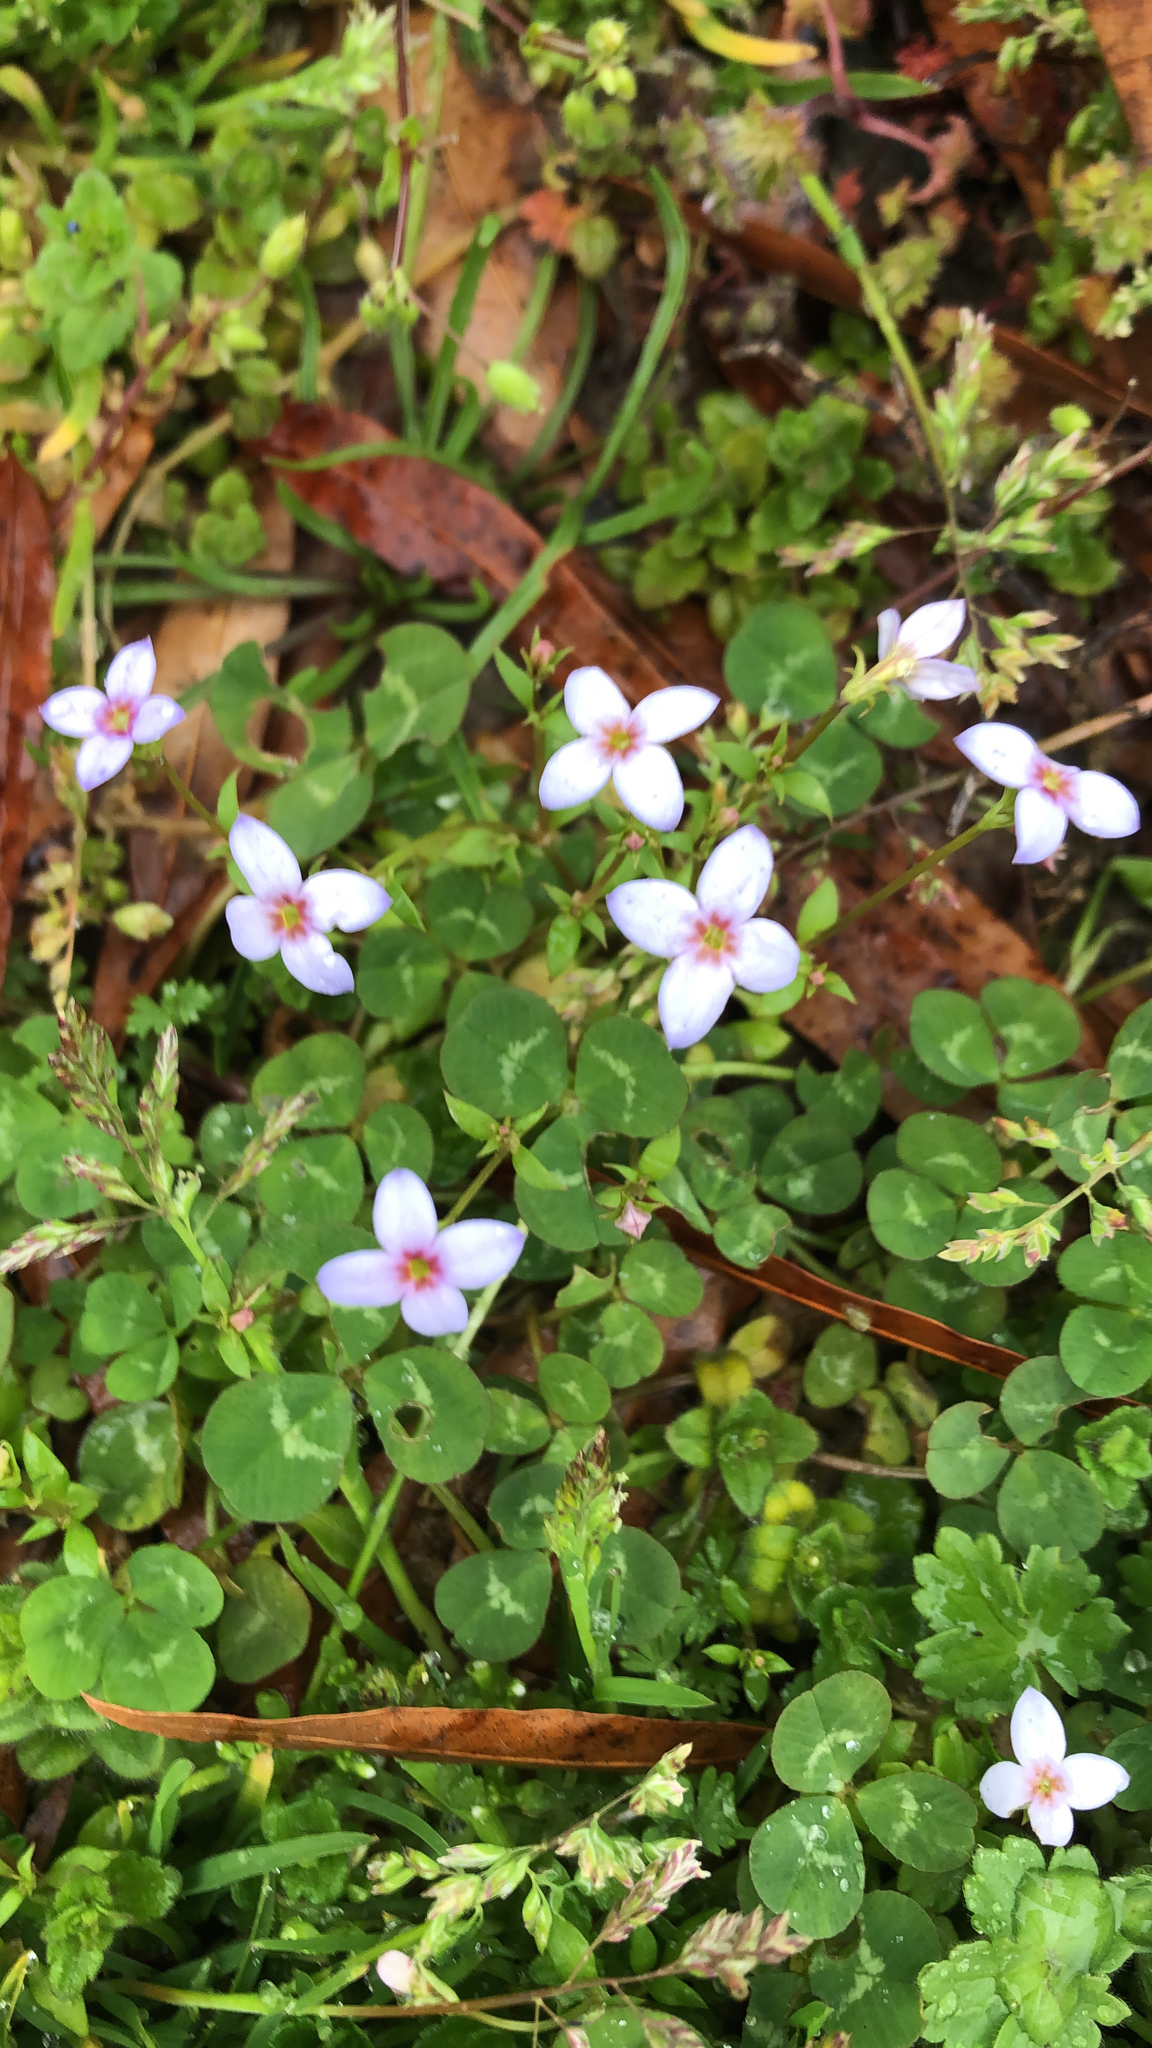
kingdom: Plantae
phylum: Tracheophyta
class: Magnoliopsida
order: Gentianales
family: Rubiaceae
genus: Houstonia
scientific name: Houstonia pusilla
